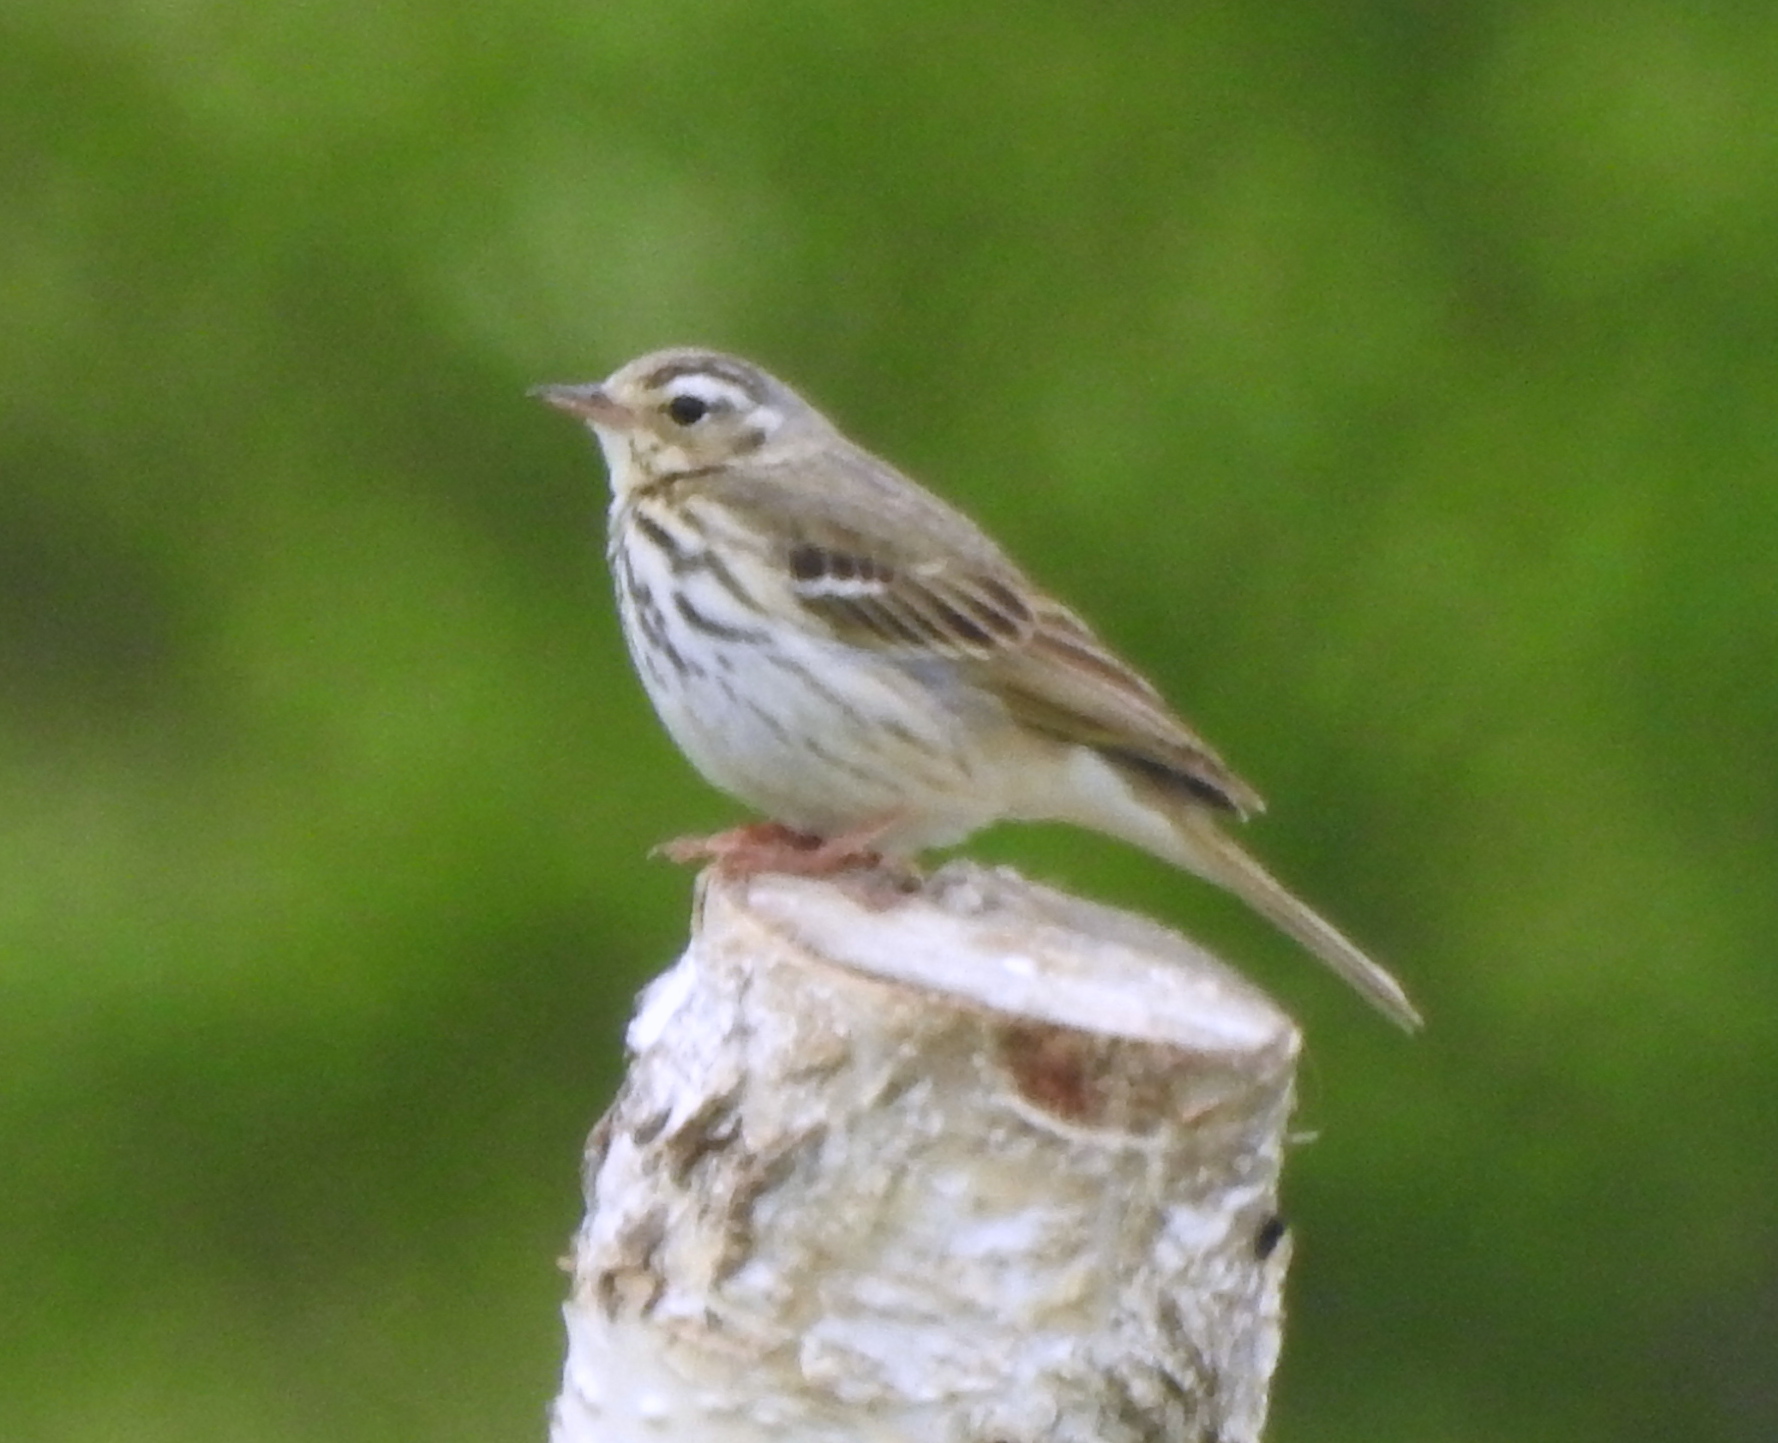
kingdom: Animalia
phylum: Chordata
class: Aves
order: Passeriformes
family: Motacillidae
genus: Anthus
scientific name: Anthus hodgsoni
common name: Olive-backed pipit
